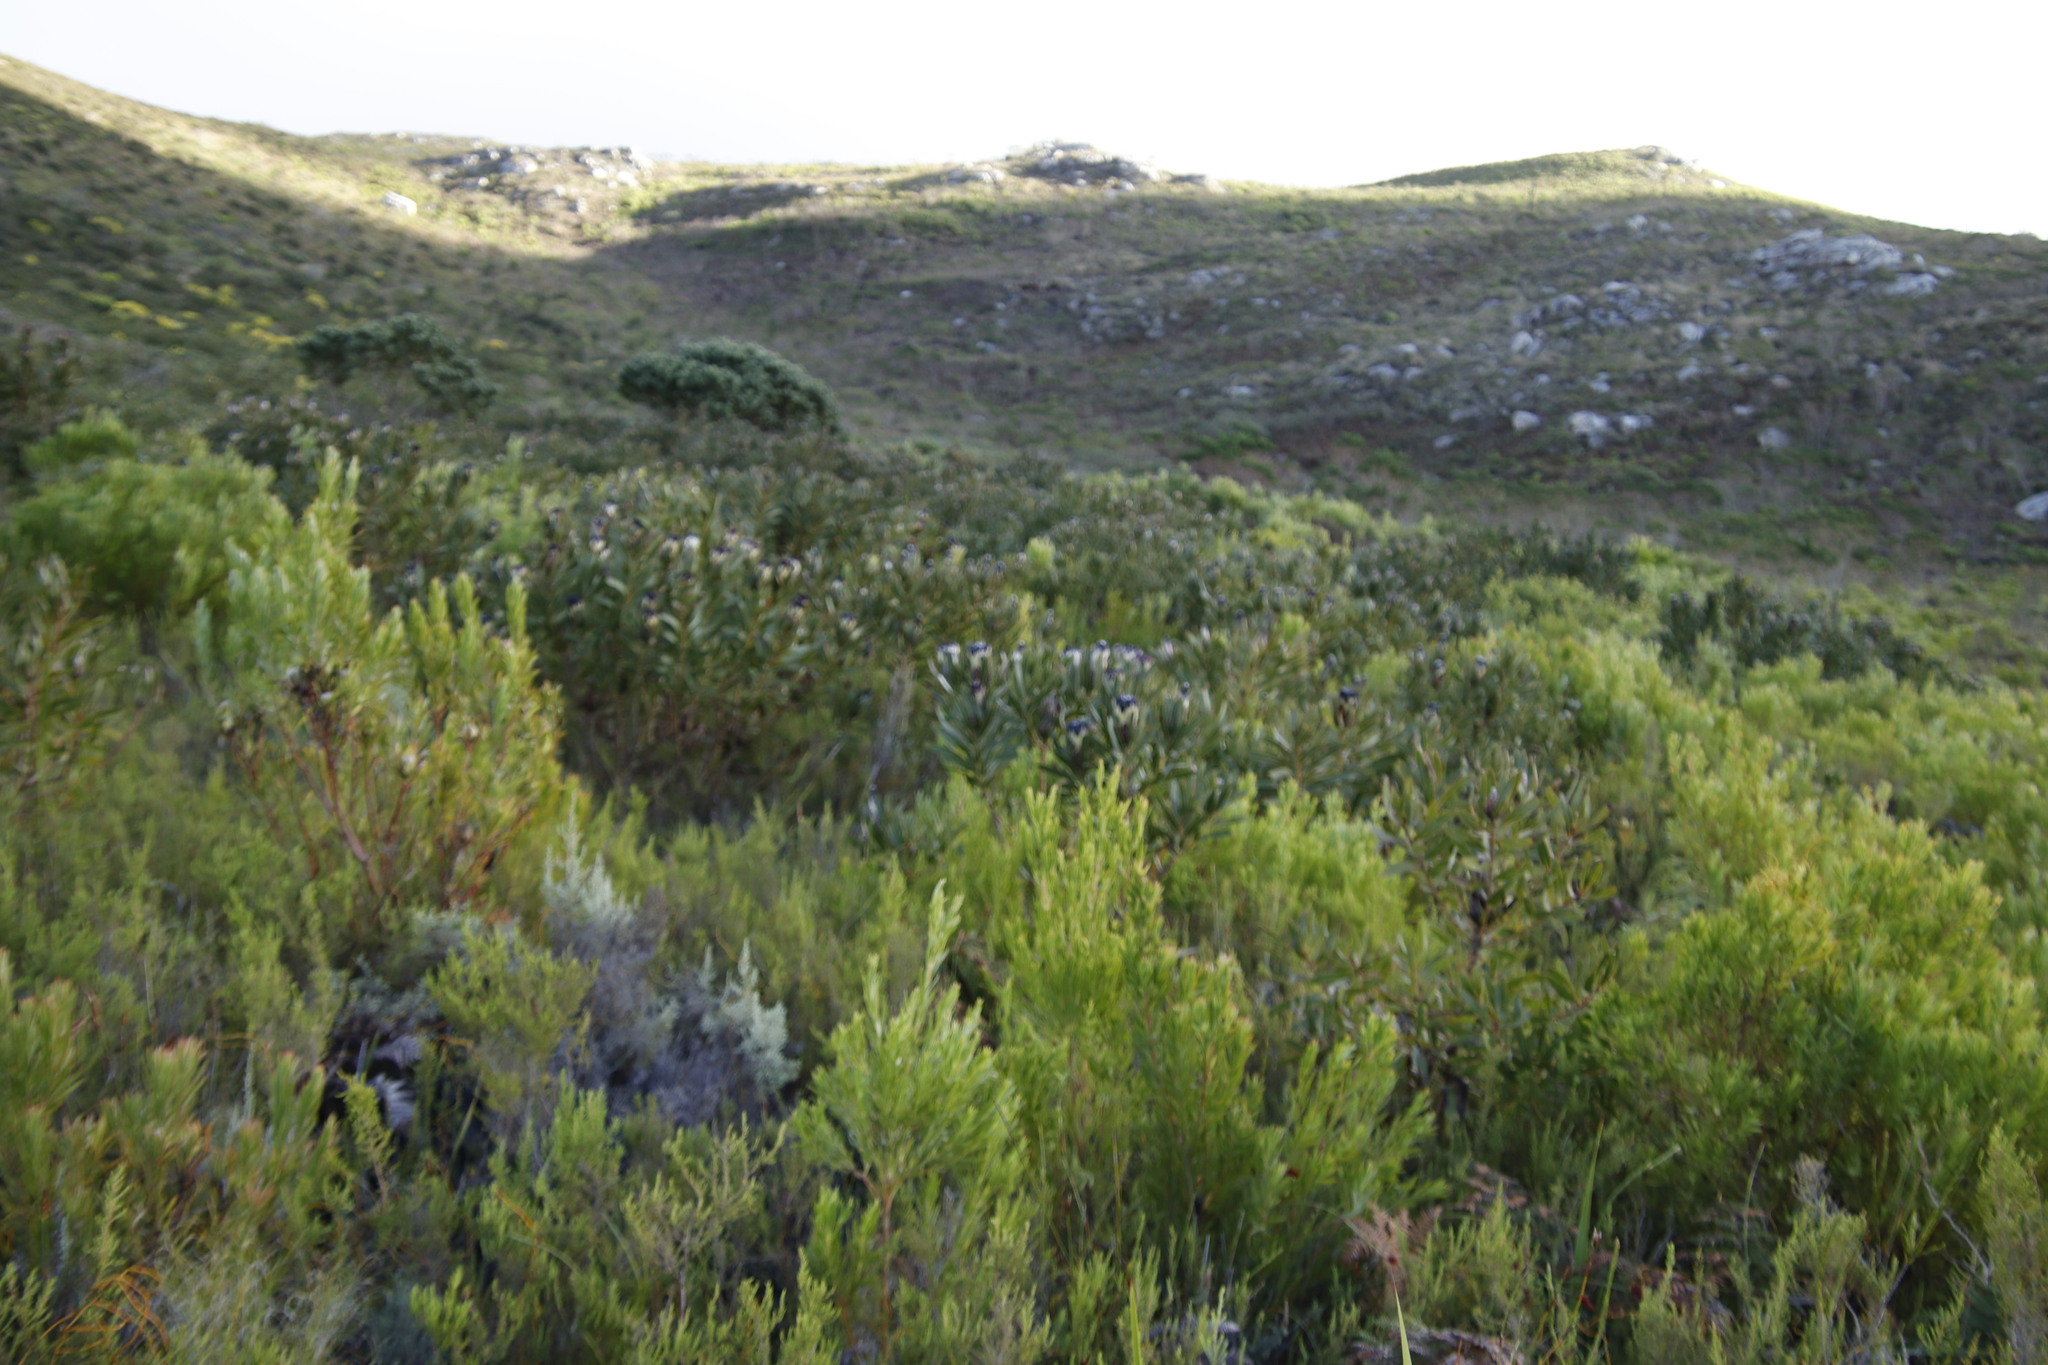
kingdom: Plantae
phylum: Tracheophyta
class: Magnoliopsida
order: Proteales
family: Proteaceae
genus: Leucadendron
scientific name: Leucadendron xanthoconus
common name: Sickle-leaf conebush
